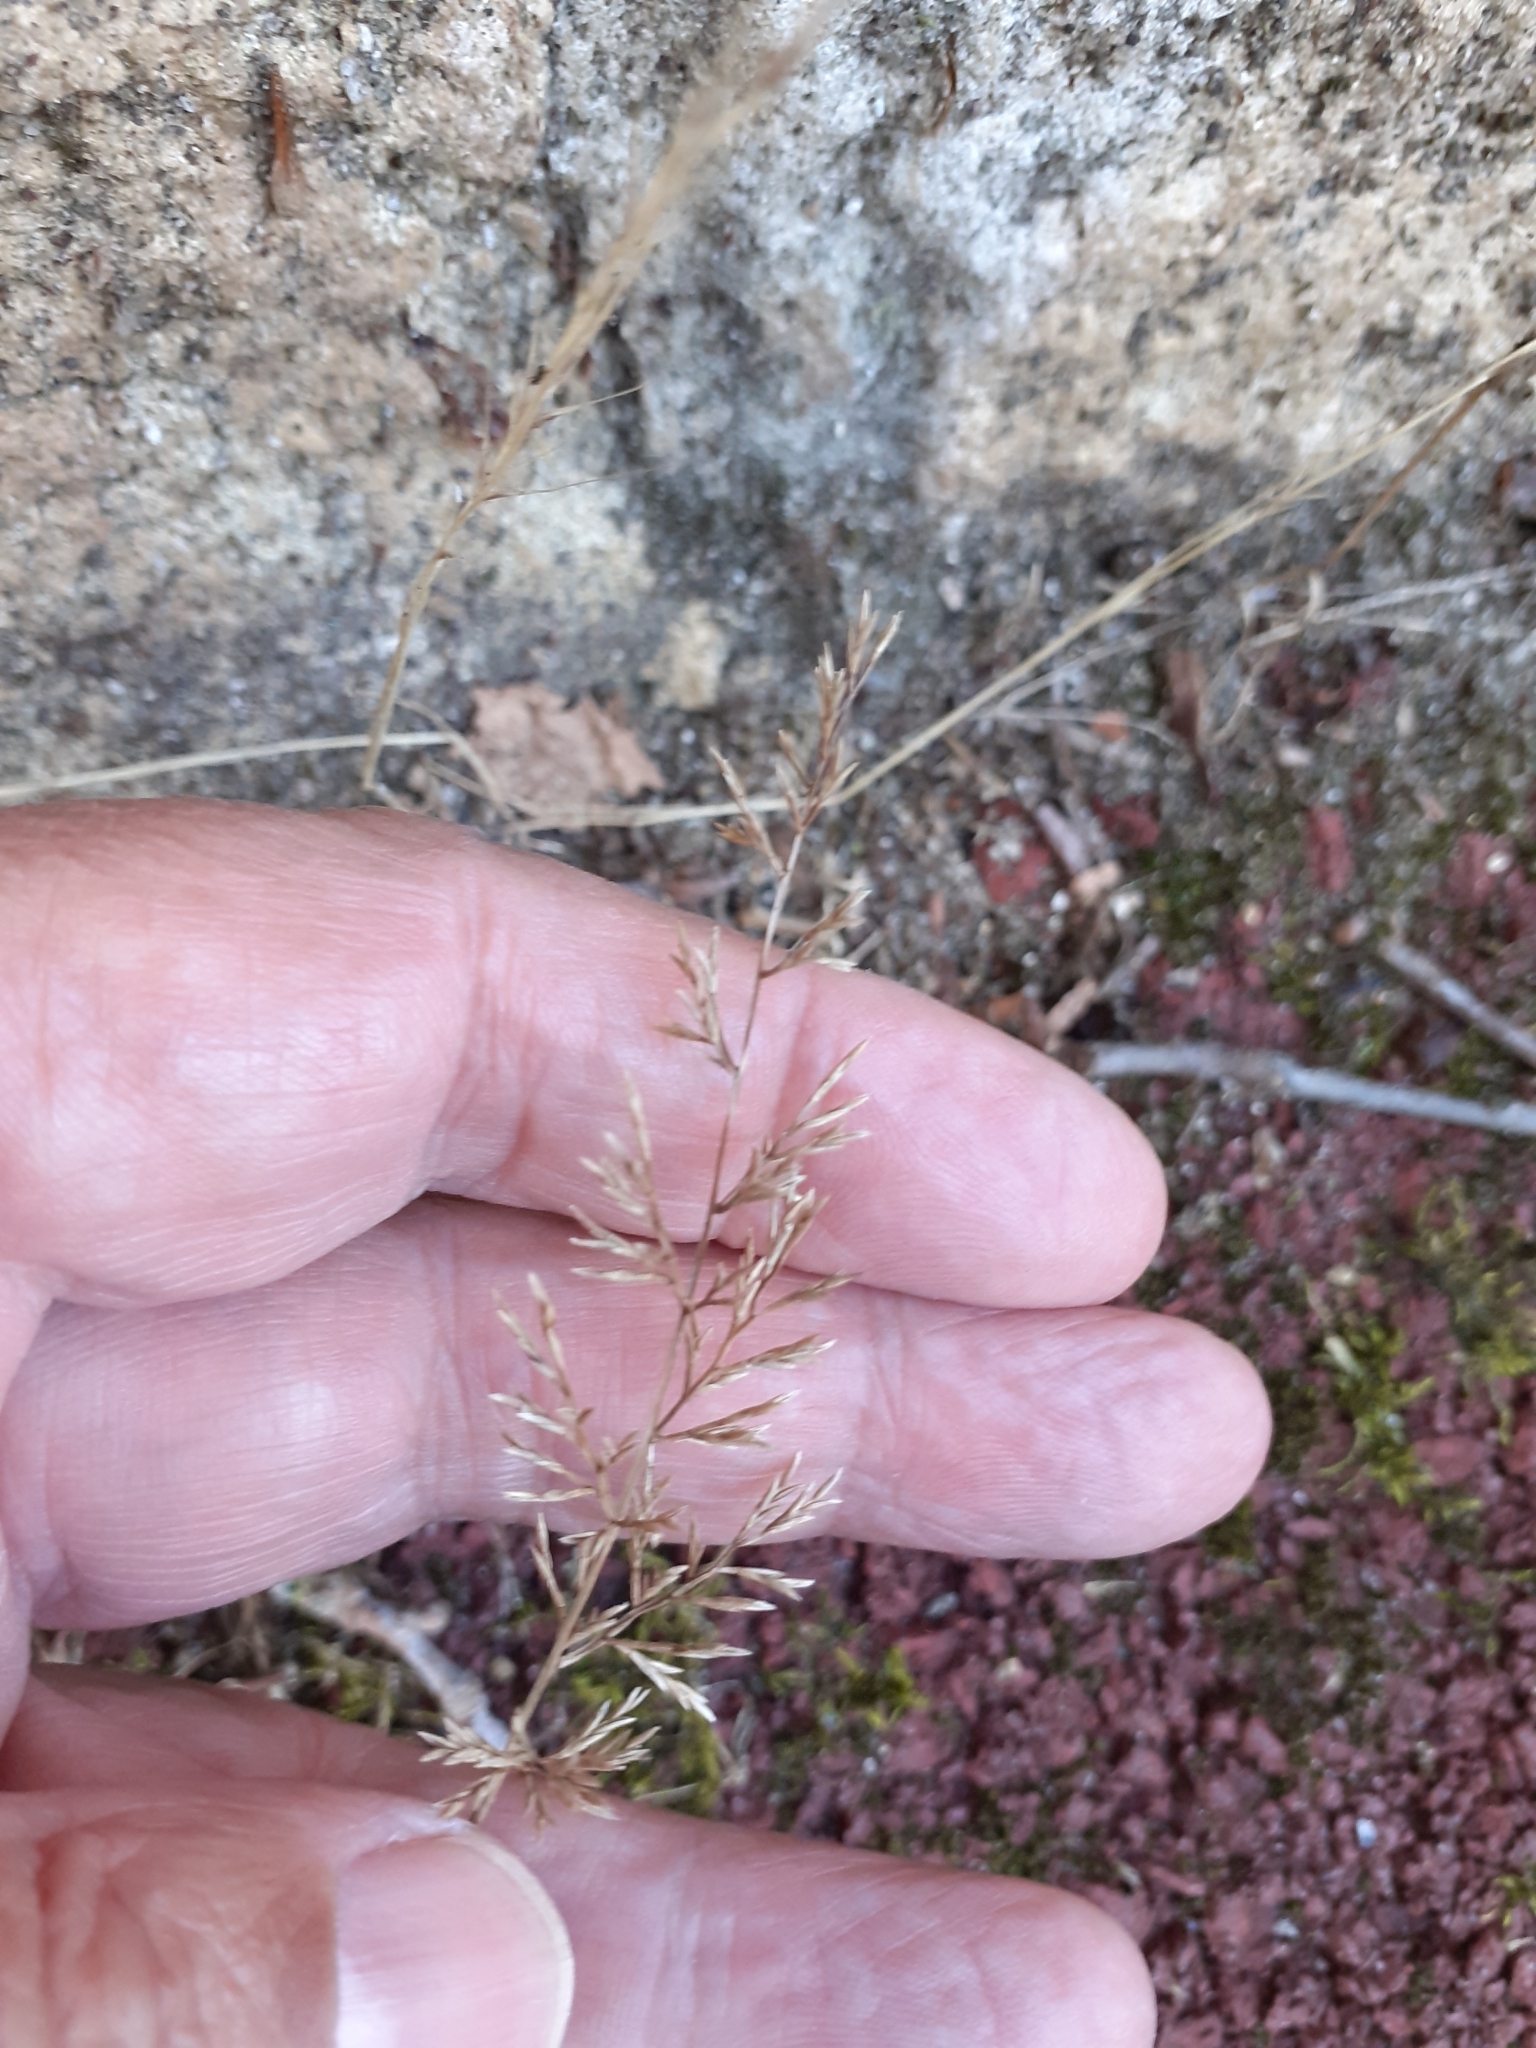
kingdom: Plantae
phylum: Tracheophyta
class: Liliopsida
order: Poales
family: Poaceae
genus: Catapodium
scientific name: Catapodium rigidum
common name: Fern-grass
